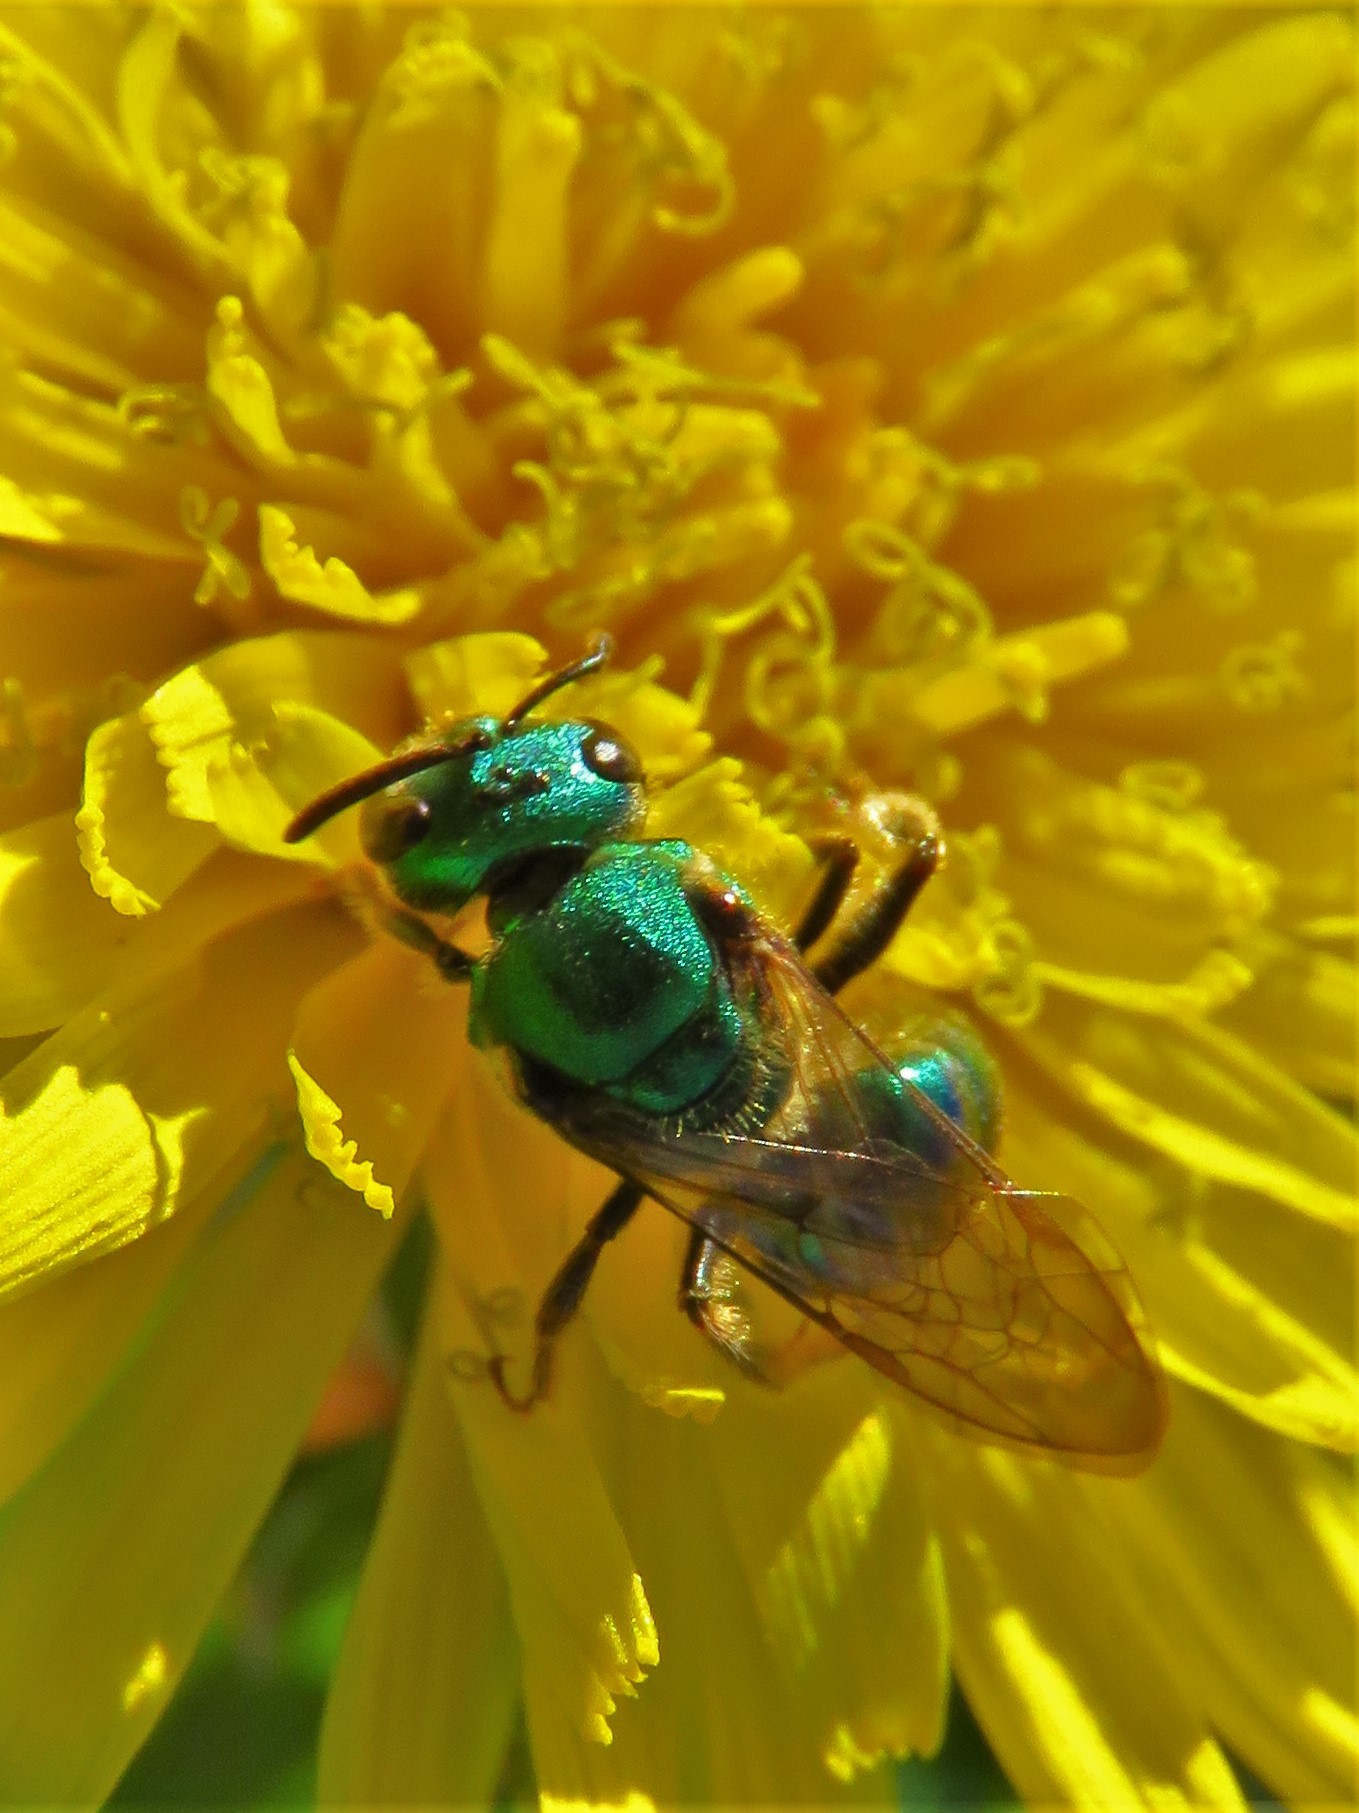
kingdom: Animalia
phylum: Arthropoda
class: Insecta
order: Hymenoptera
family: Halictidae
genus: Augochlora
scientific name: Augochlora pura
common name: Pure green sweat bee
